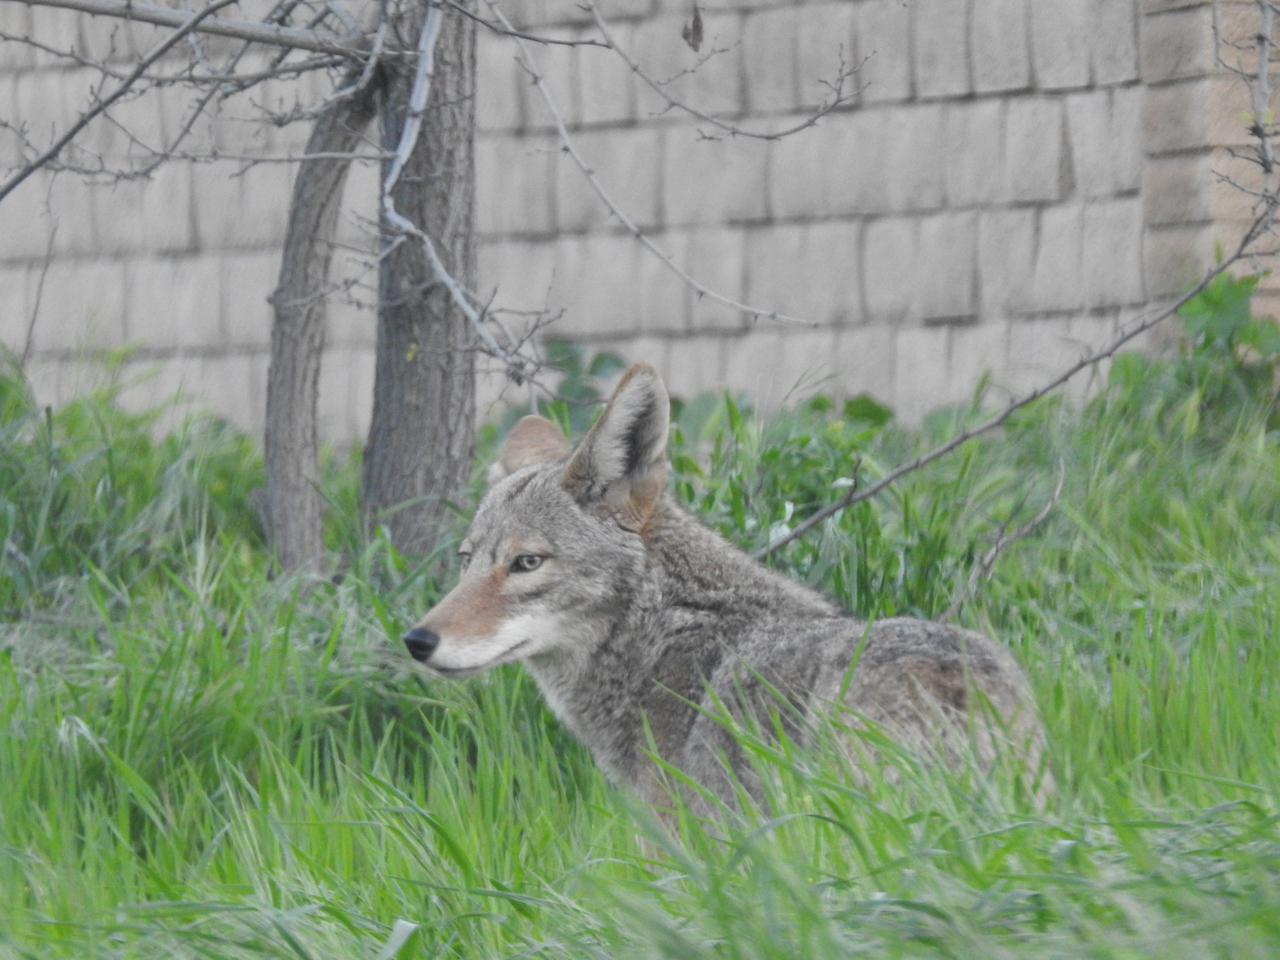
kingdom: Animalia
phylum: Chordata
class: Mammalia
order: Carnivora
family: Canidae
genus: Canis
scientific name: Canis latrans
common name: Coyote
